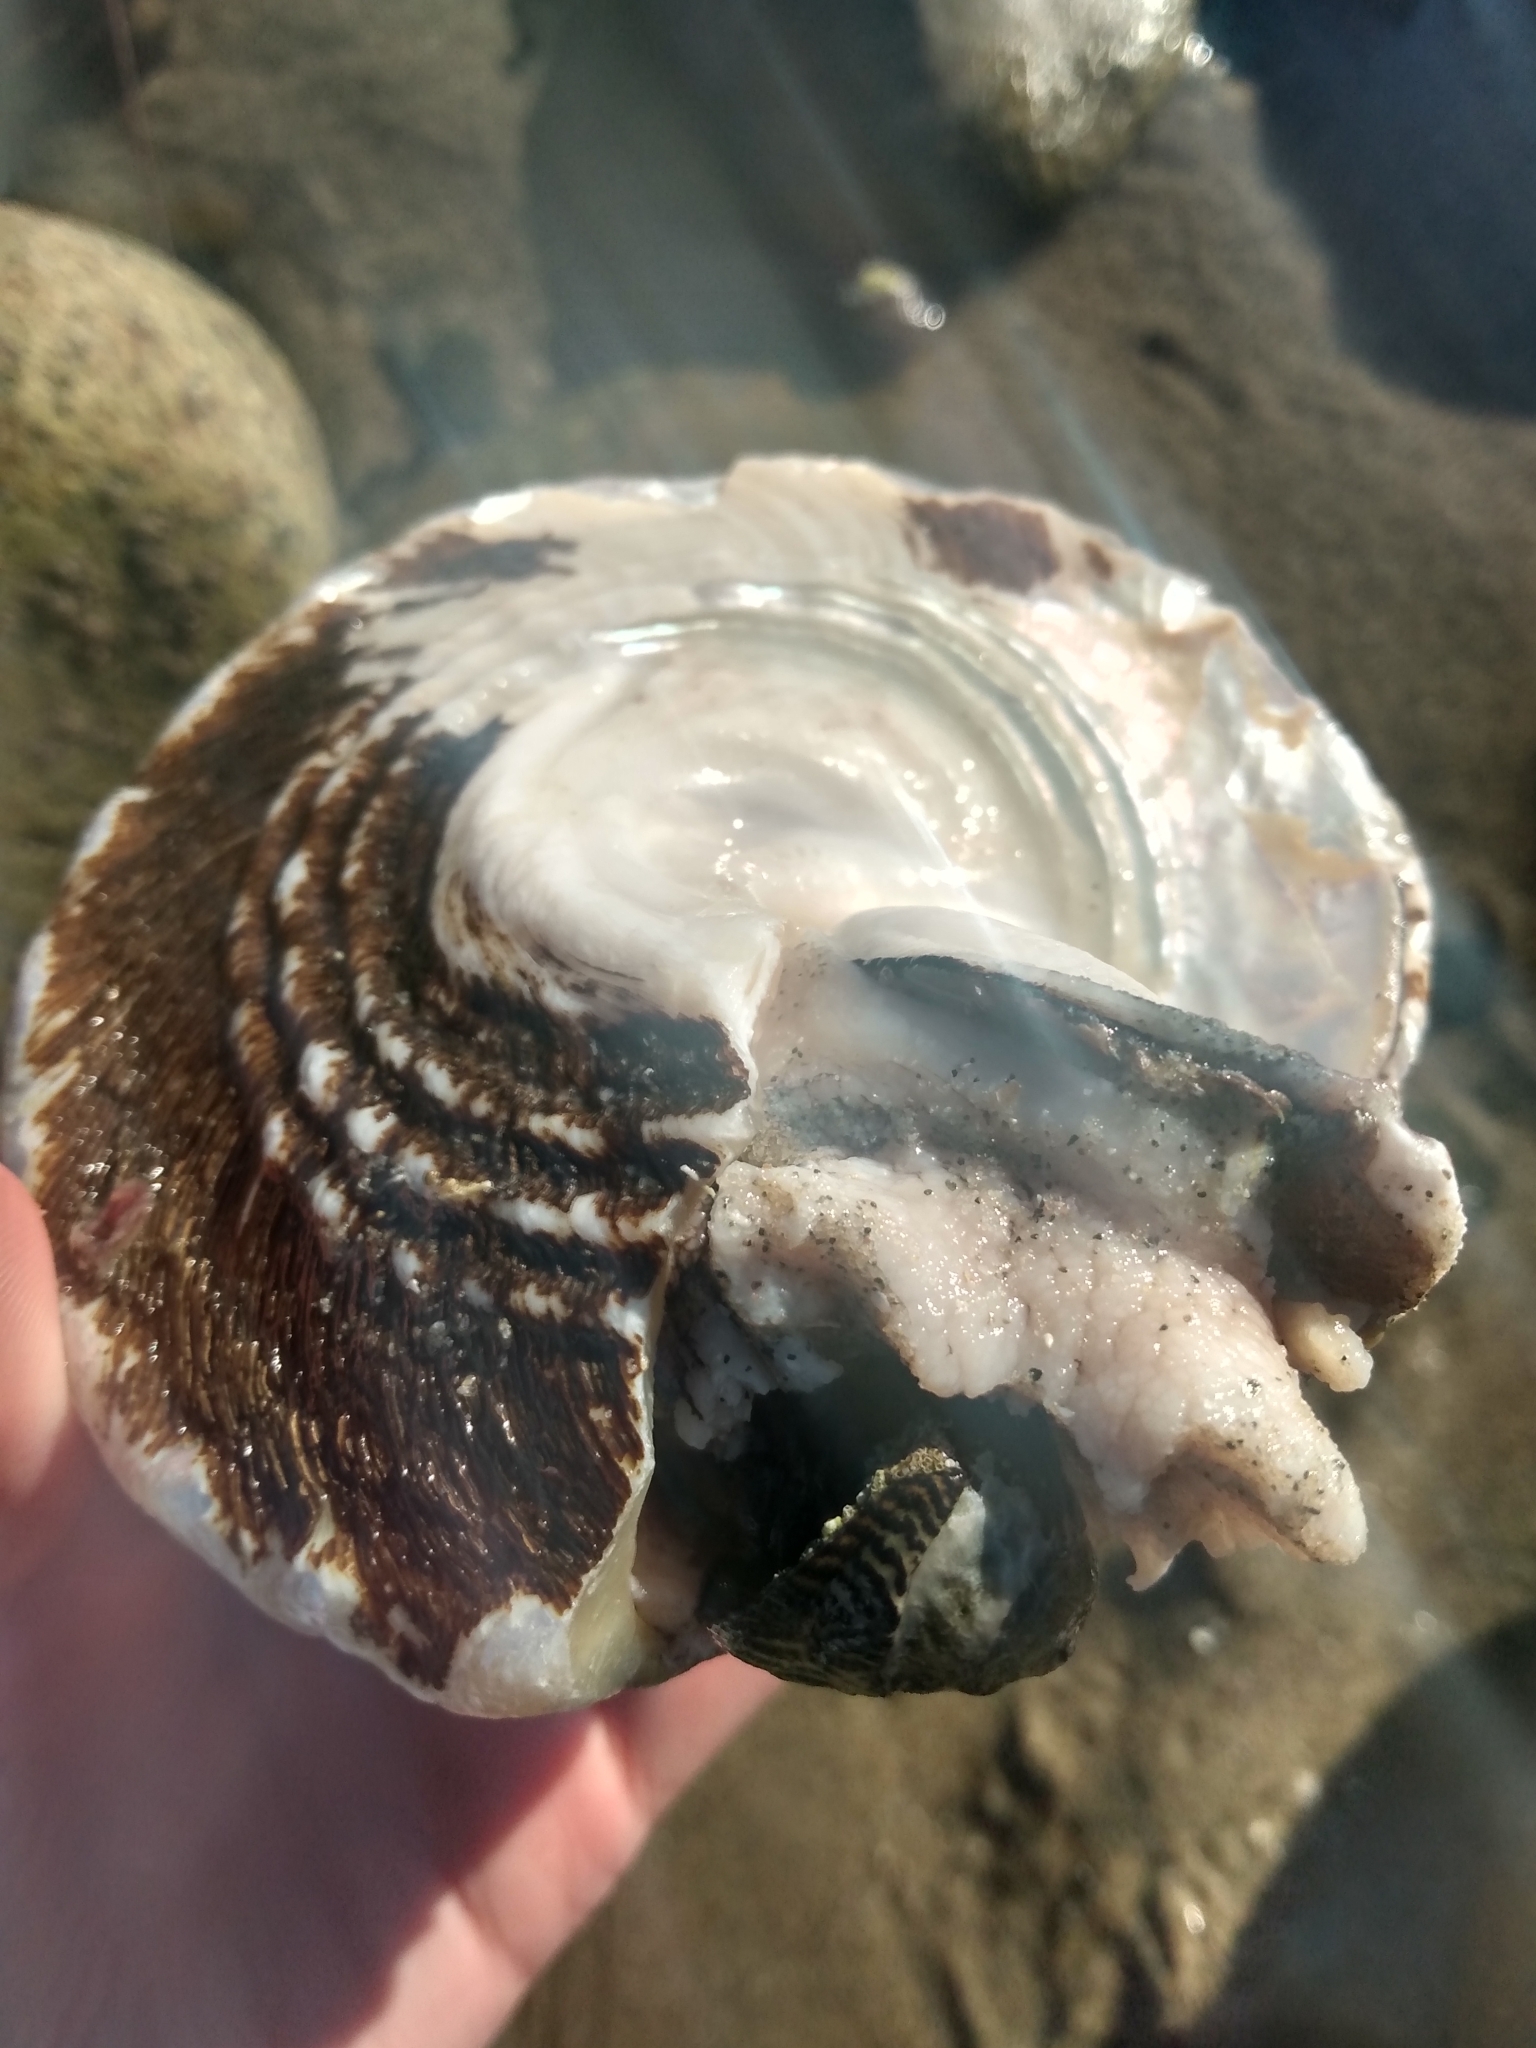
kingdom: Animalia
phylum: Mollusca
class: Gastropoda
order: Trochida
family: Turbinidae
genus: Megastraea
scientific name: Megastraea undosa
